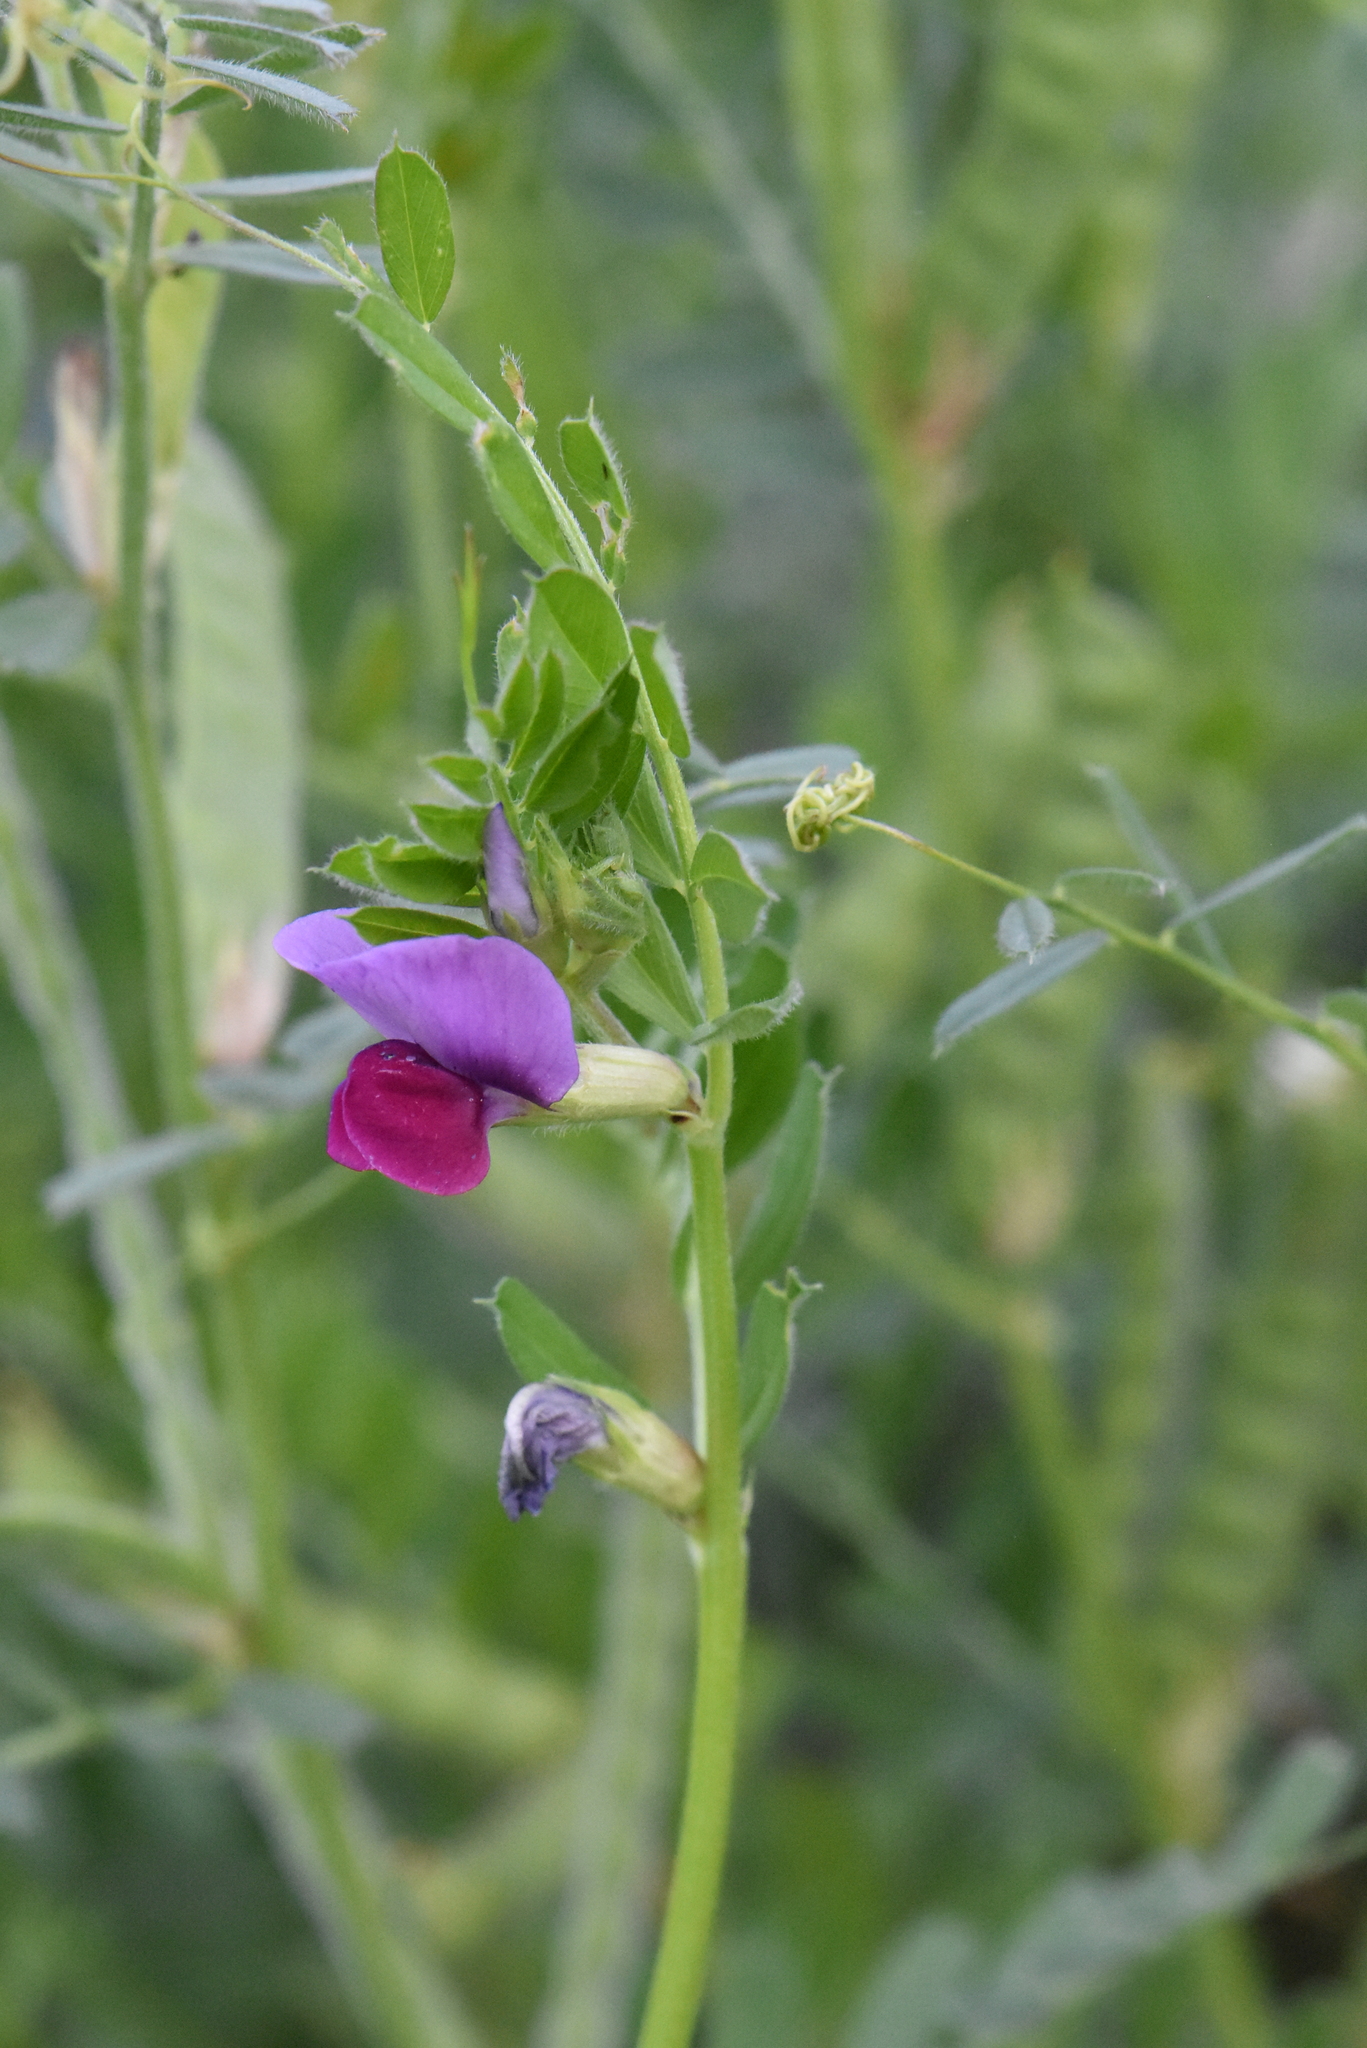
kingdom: Plantae
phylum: Tracheophyta
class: Magnoliopsida
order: Fabales
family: Fabaceae
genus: Vicia
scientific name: Vicia sativa
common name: Garden vetch
